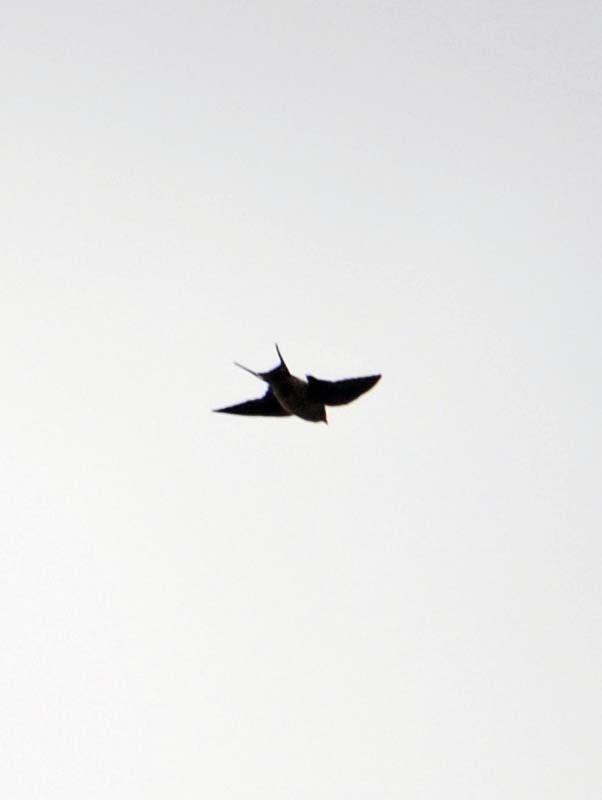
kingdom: Animalia
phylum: Chordata
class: Aves
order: Passeriformes
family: Hirundinidae
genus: Hirundo
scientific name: Hirundo rustica
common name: Barn swallow
